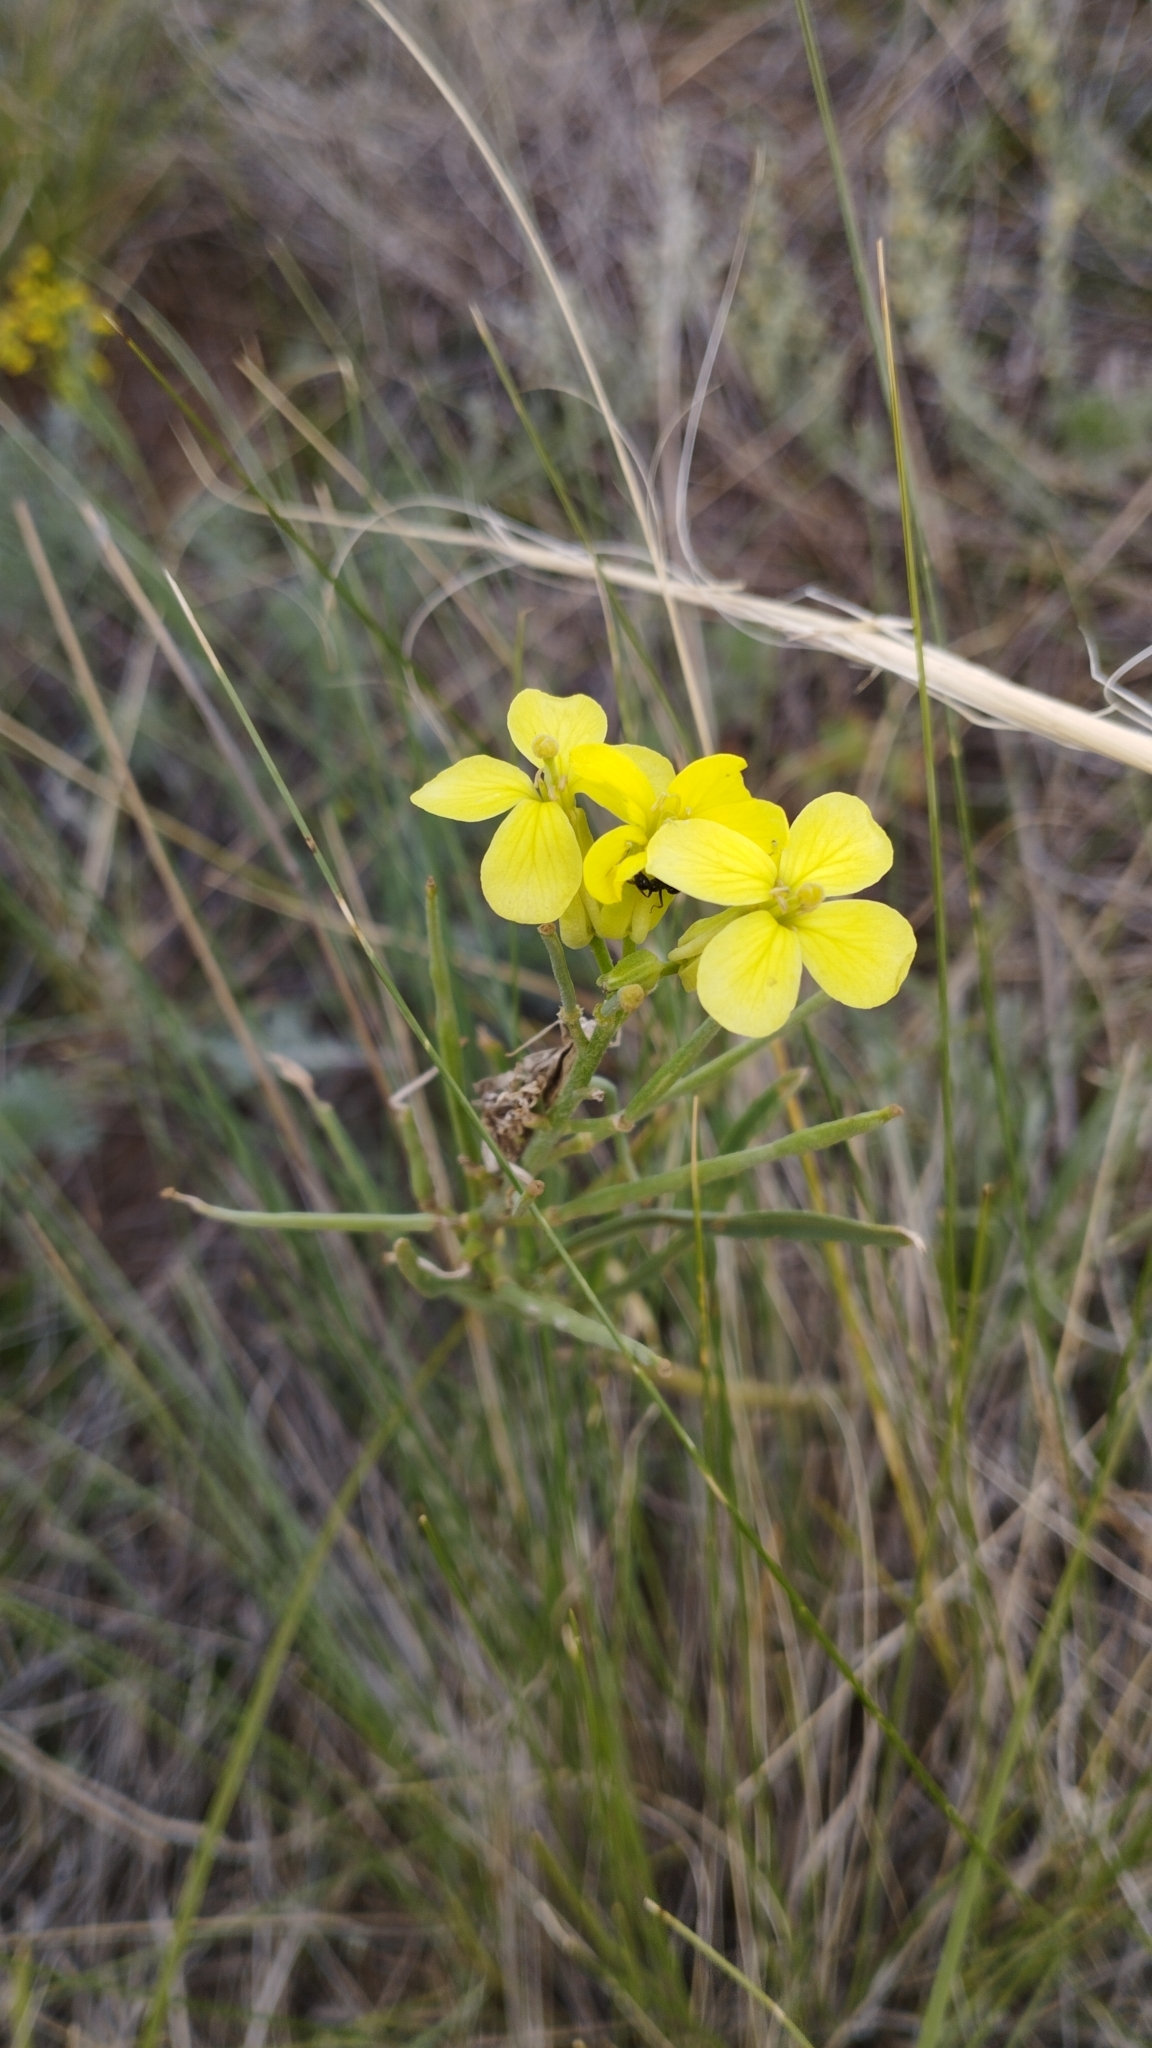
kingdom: Plantae
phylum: Tracheophyta
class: Magnoliopsida
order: Brassicales
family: Brassicaceae
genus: Erysimum
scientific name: Erysimum flavum
